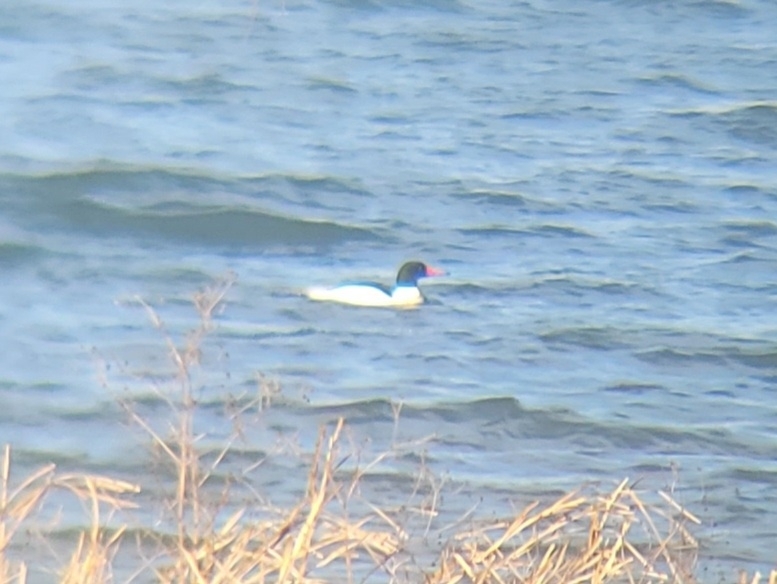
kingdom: Animalia
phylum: Chordata
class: Aves
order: Anseriformes
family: Anatidae
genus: Mergus
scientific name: Mergus merganser
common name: Common merganser
